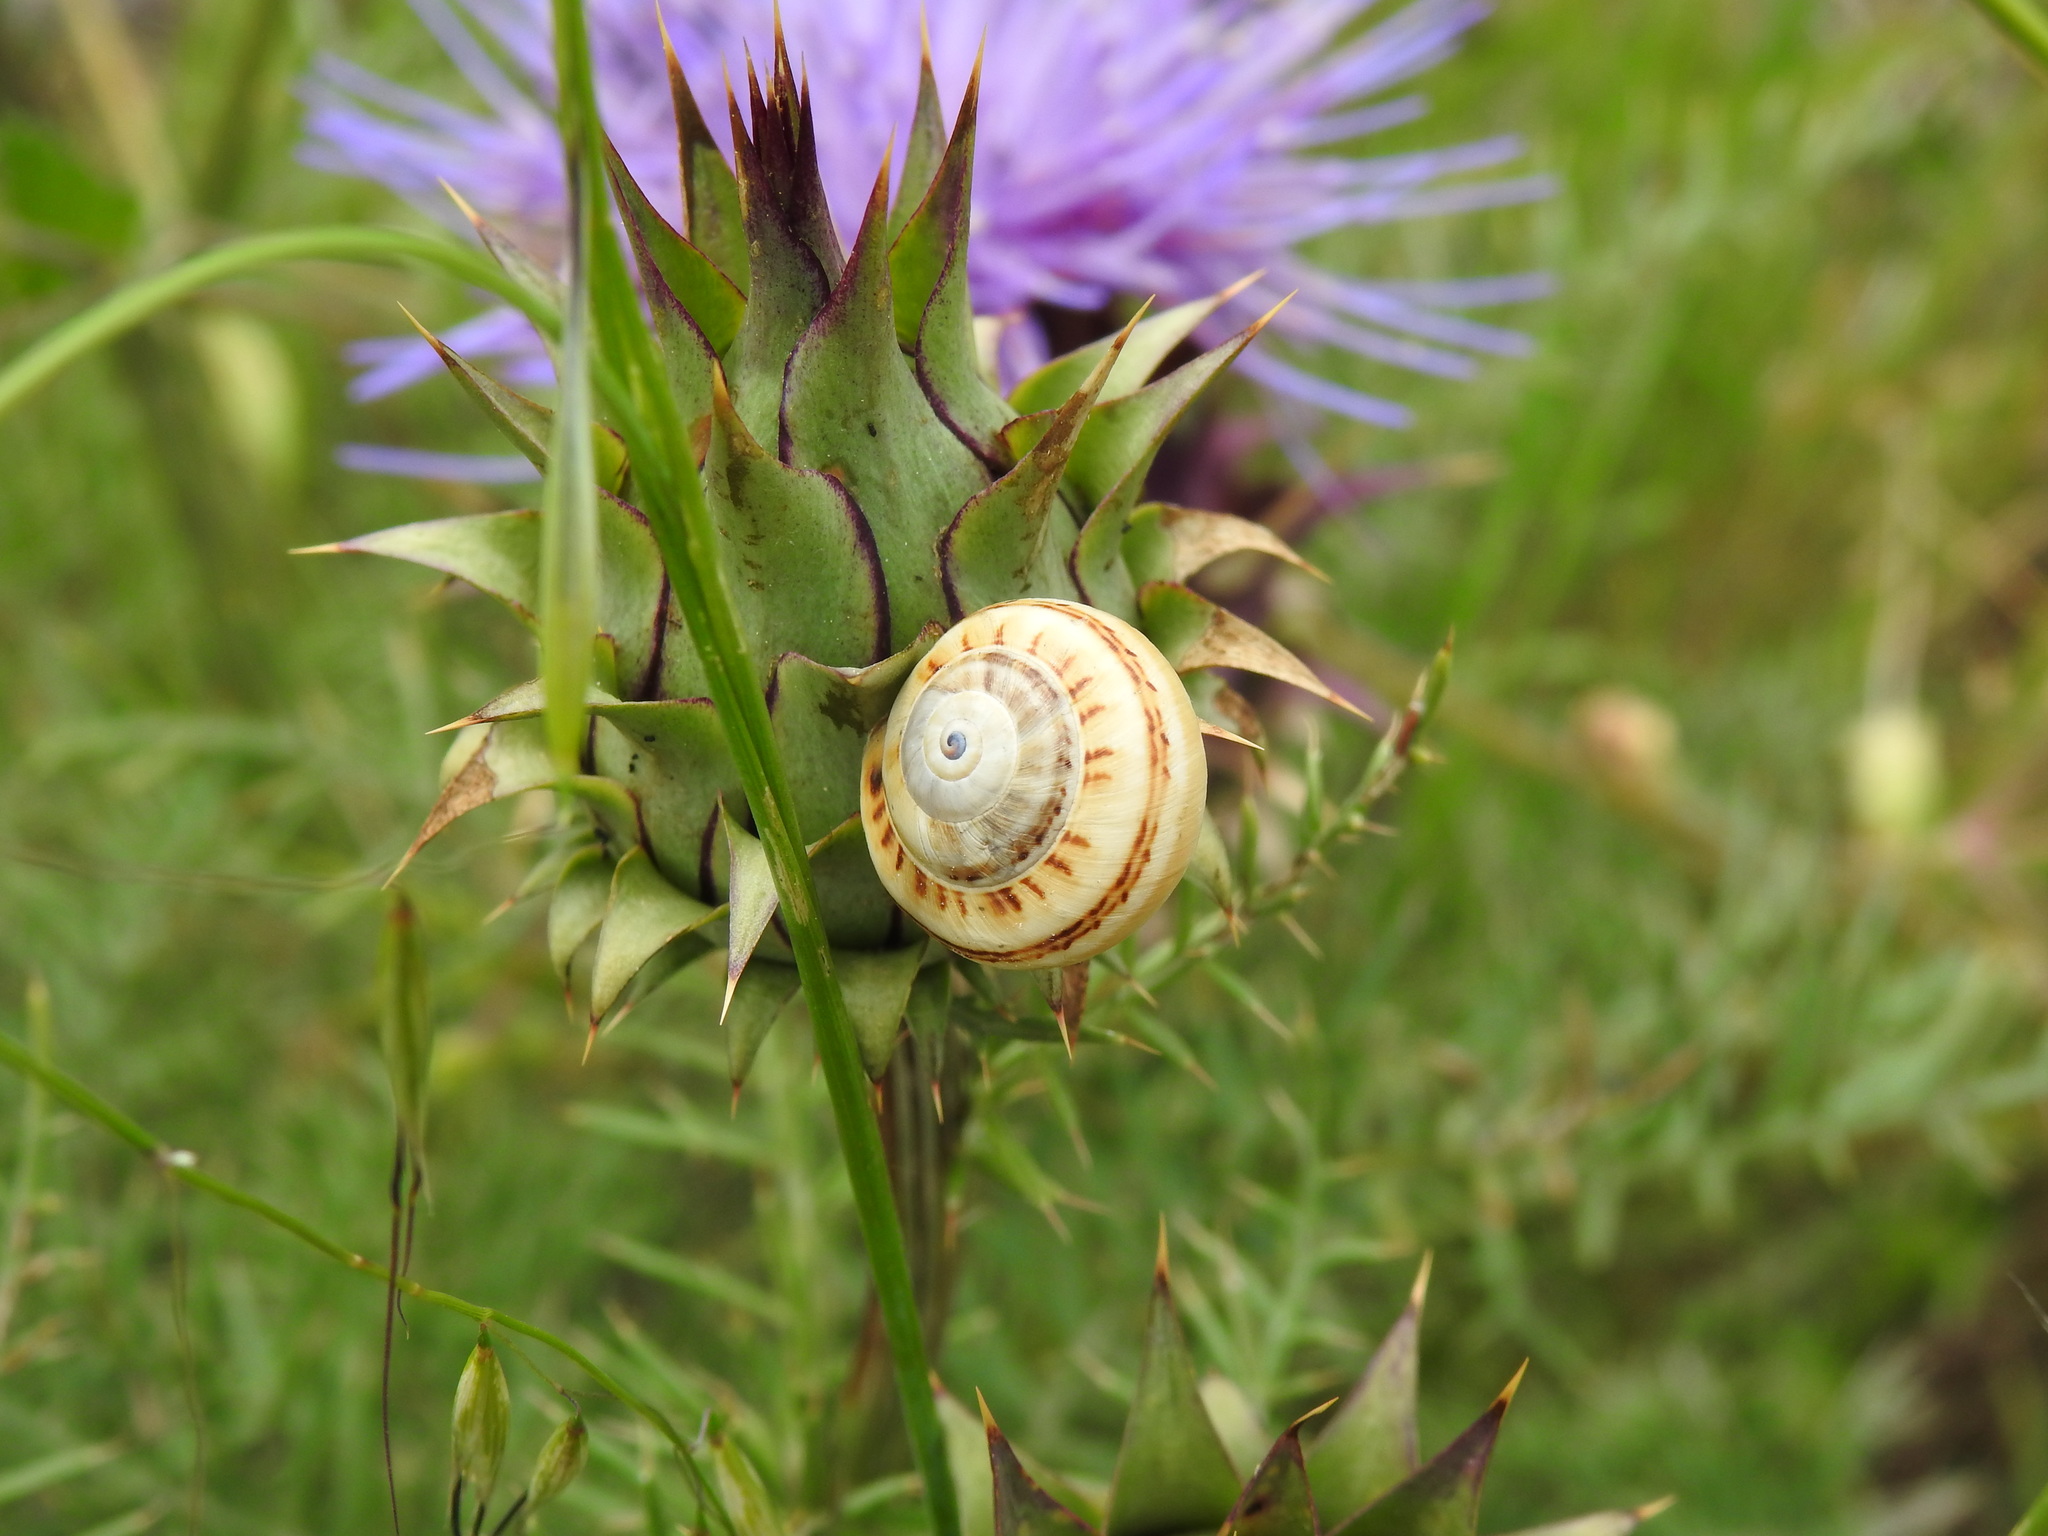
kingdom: Animalia
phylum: Mollusca
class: Gastropoda
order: Stylommatophora
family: Helicidae
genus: Theba
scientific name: Theba pisana
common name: White snail
